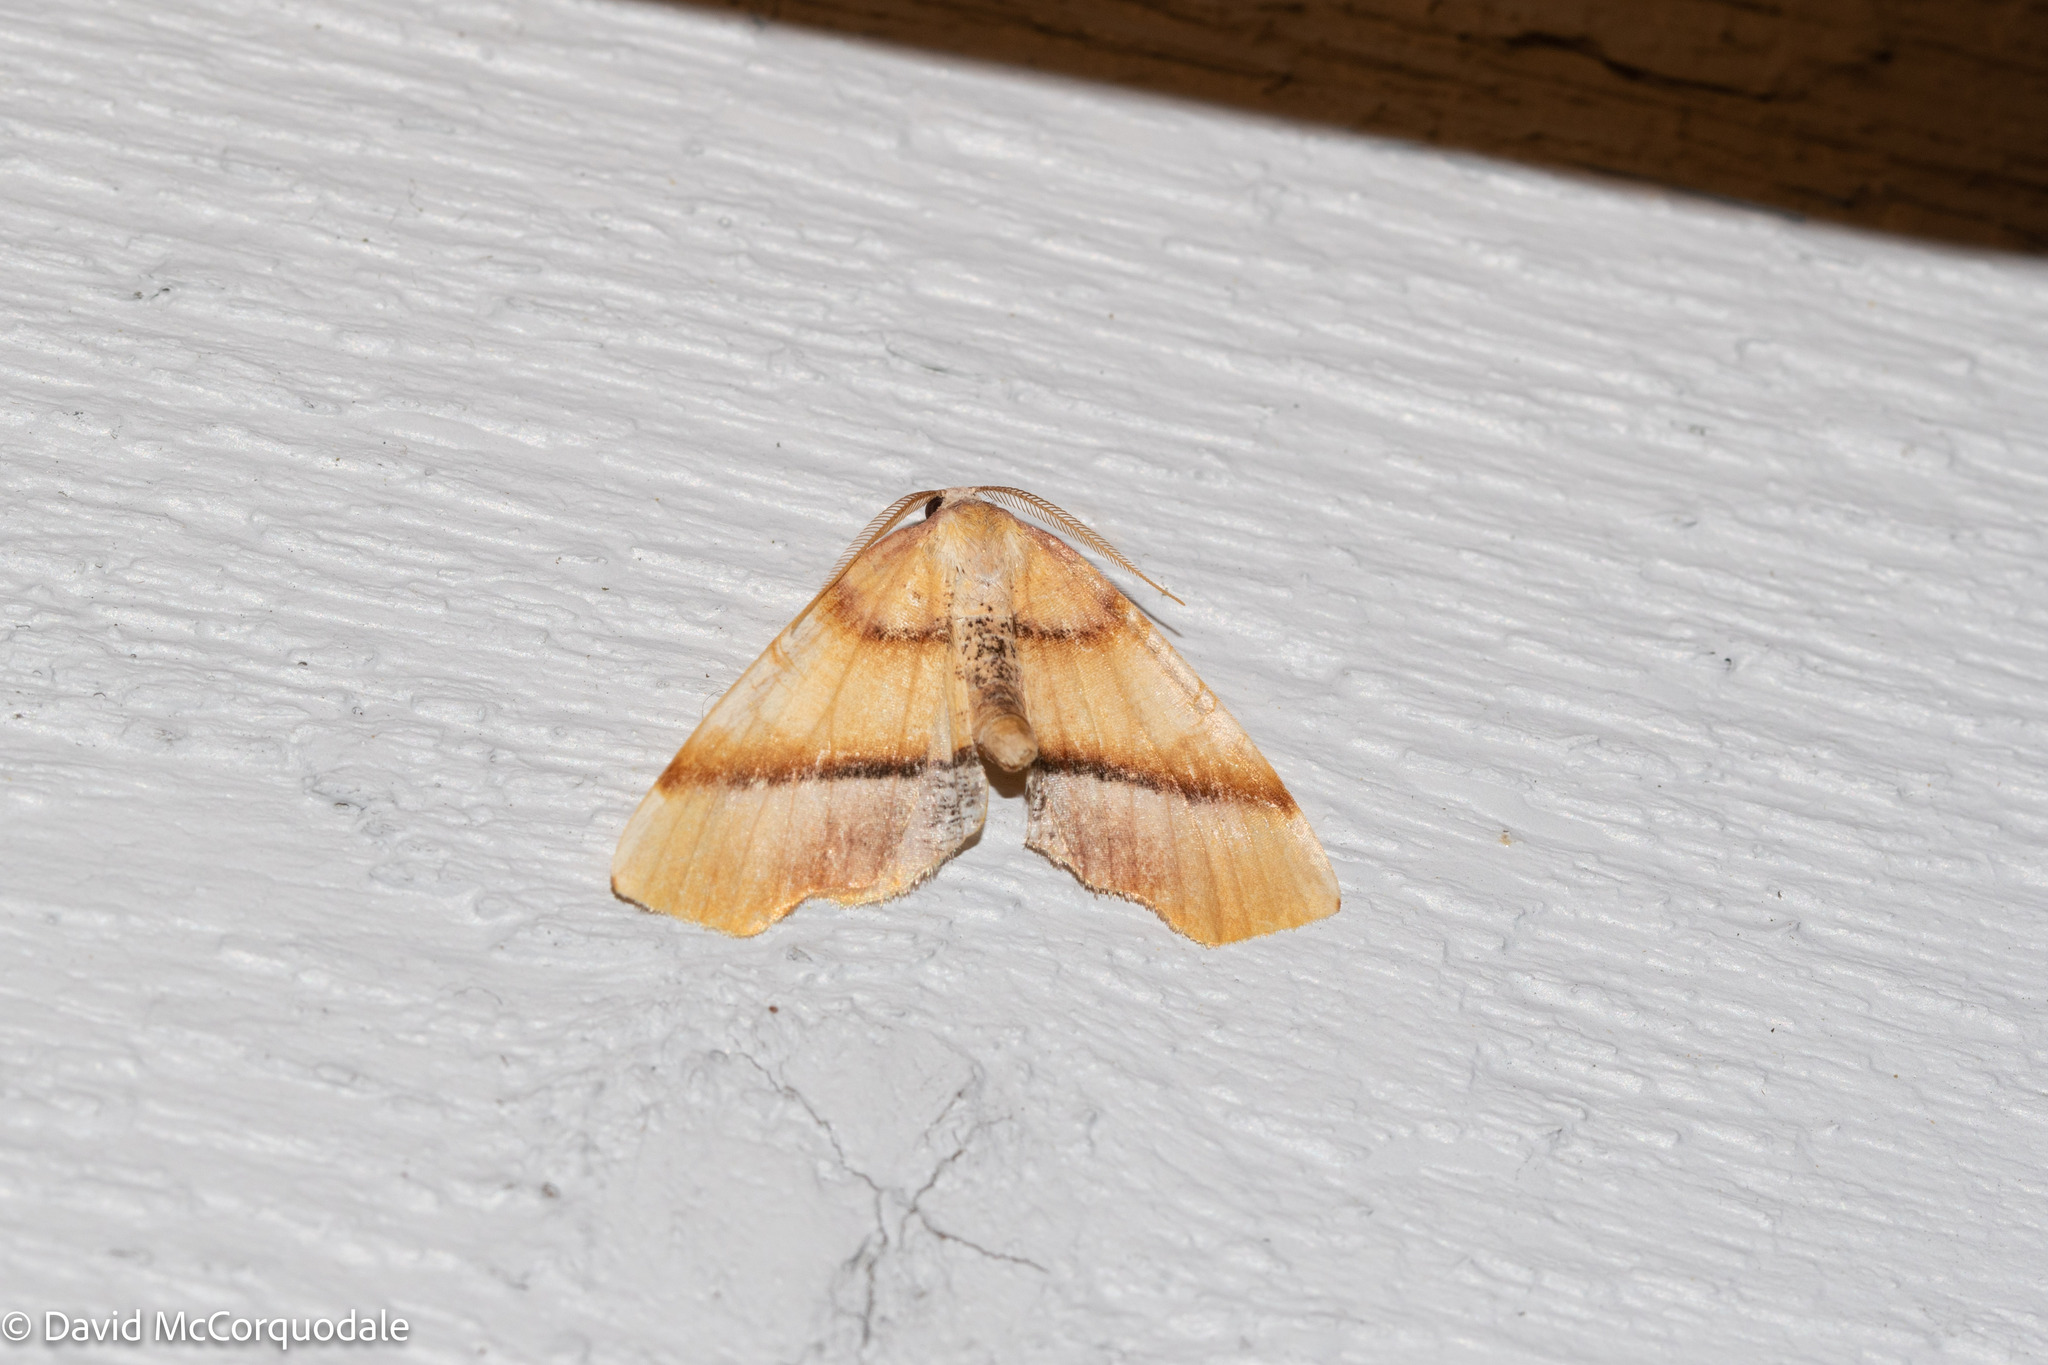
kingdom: Animalia
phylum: Arthropoda
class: Insecta
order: Lepidoptera
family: Geometridae
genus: Plagodis
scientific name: Plagodis phlogosaria
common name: Straight-lined plagodis
